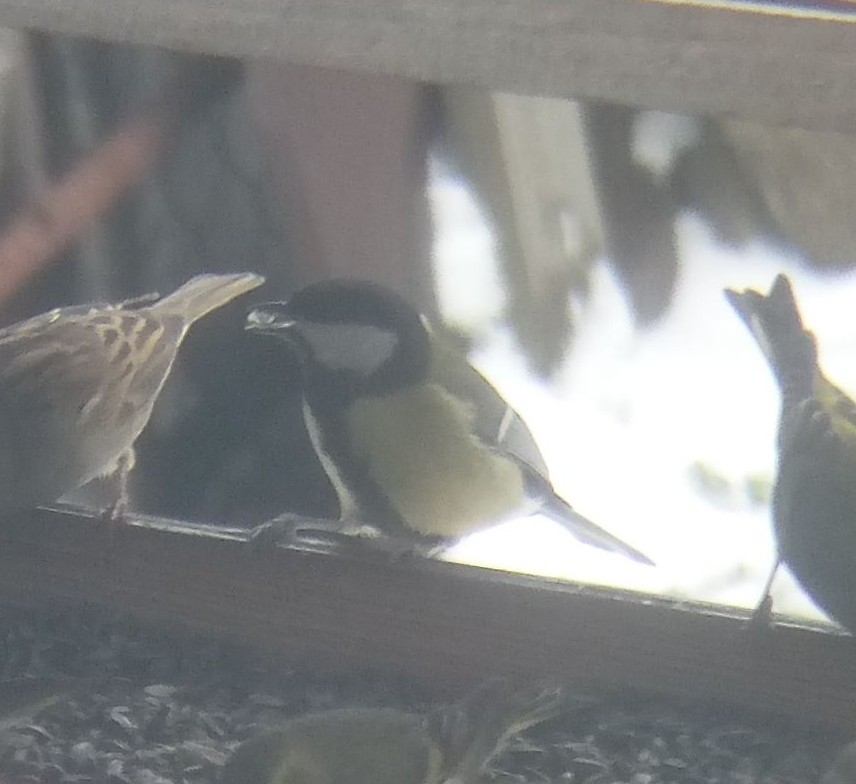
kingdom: Animalia
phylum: Chordata
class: Aves
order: Passeriformes
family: Paridae
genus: Parus
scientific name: Parus major
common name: Great tit
